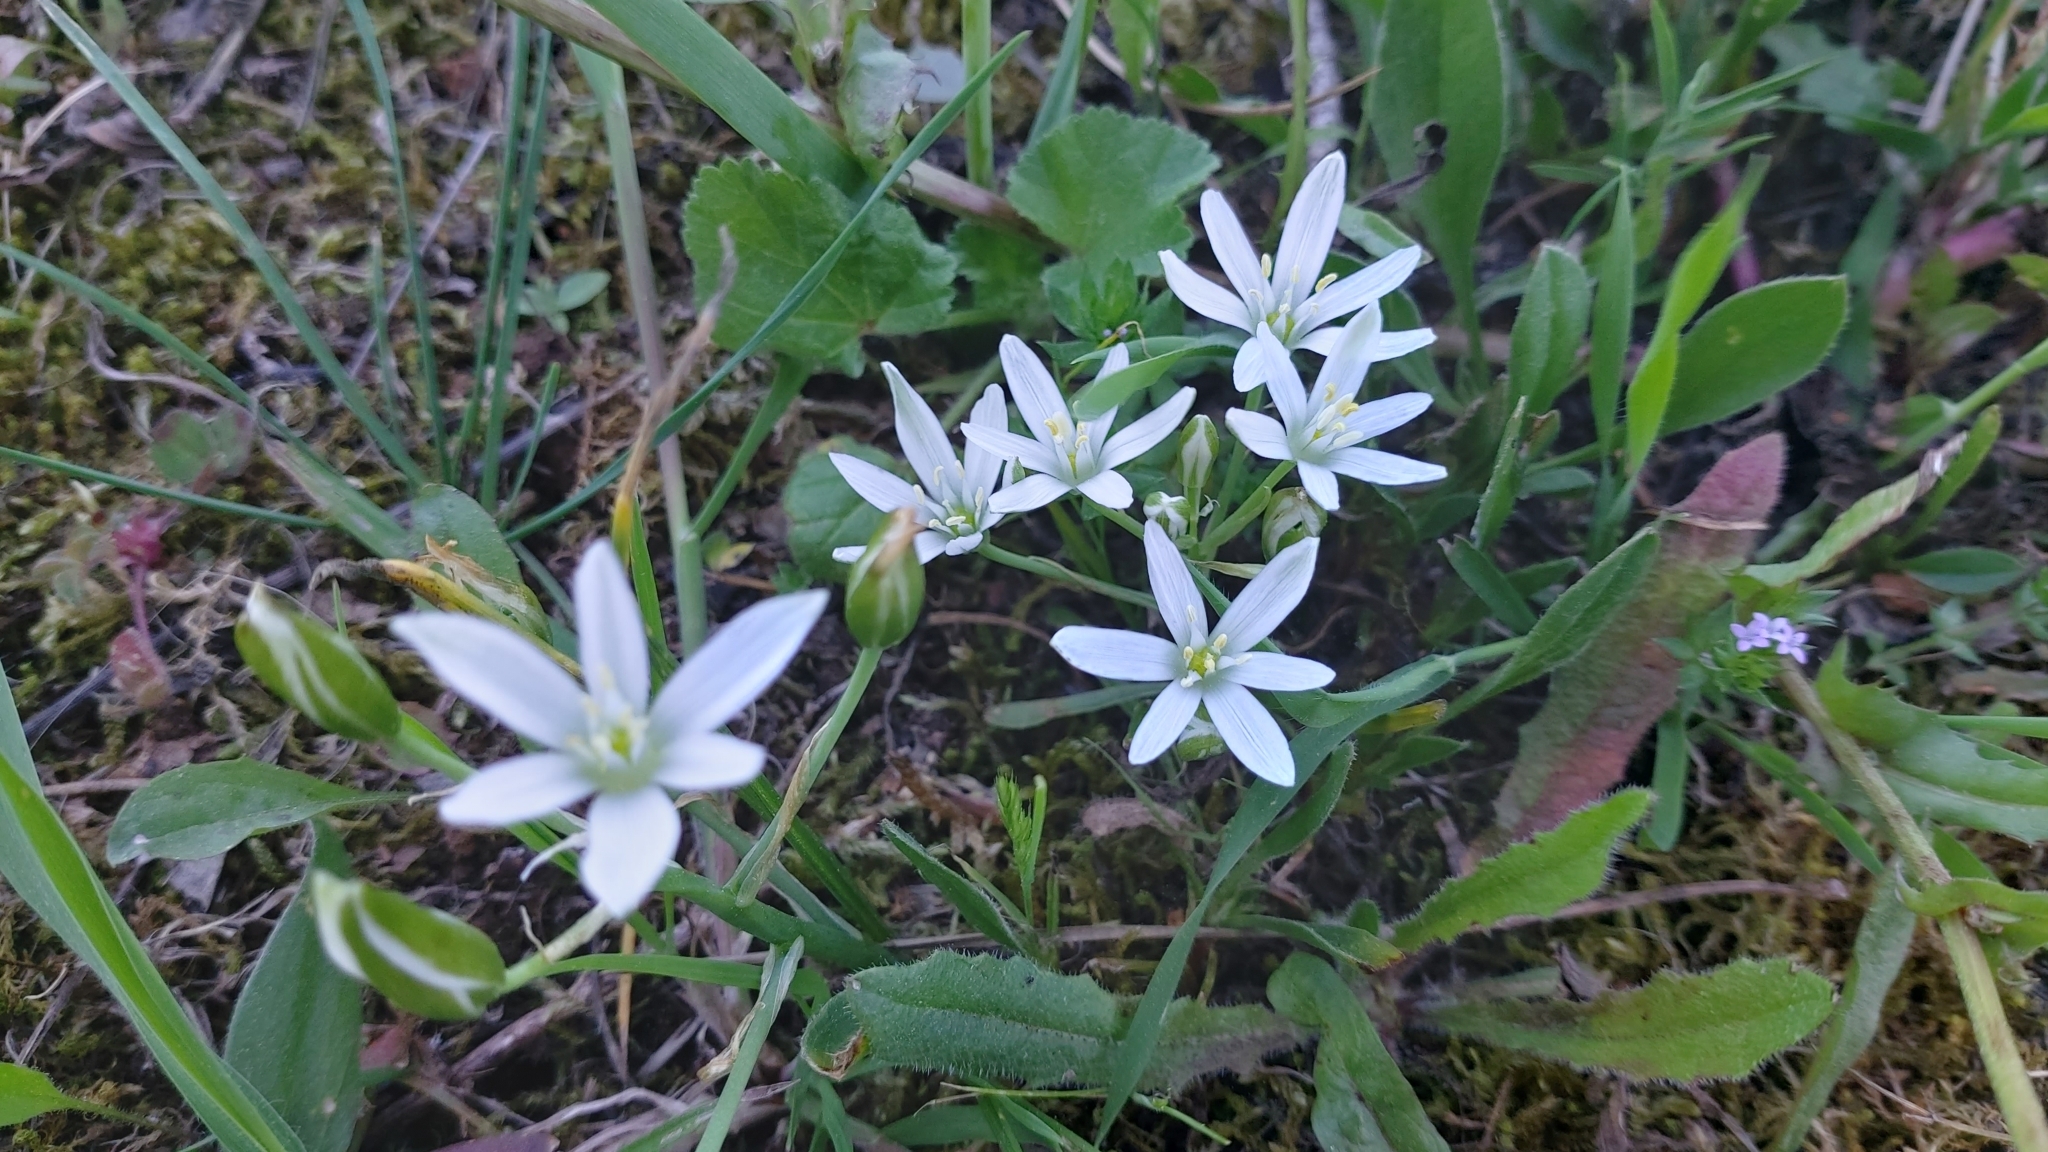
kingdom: Plantae
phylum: Tracheophyta
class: Liliopsida
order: Asparagales
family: Asparagaceae
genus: Ornithogalum
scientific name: Ornithogalum baeticum
